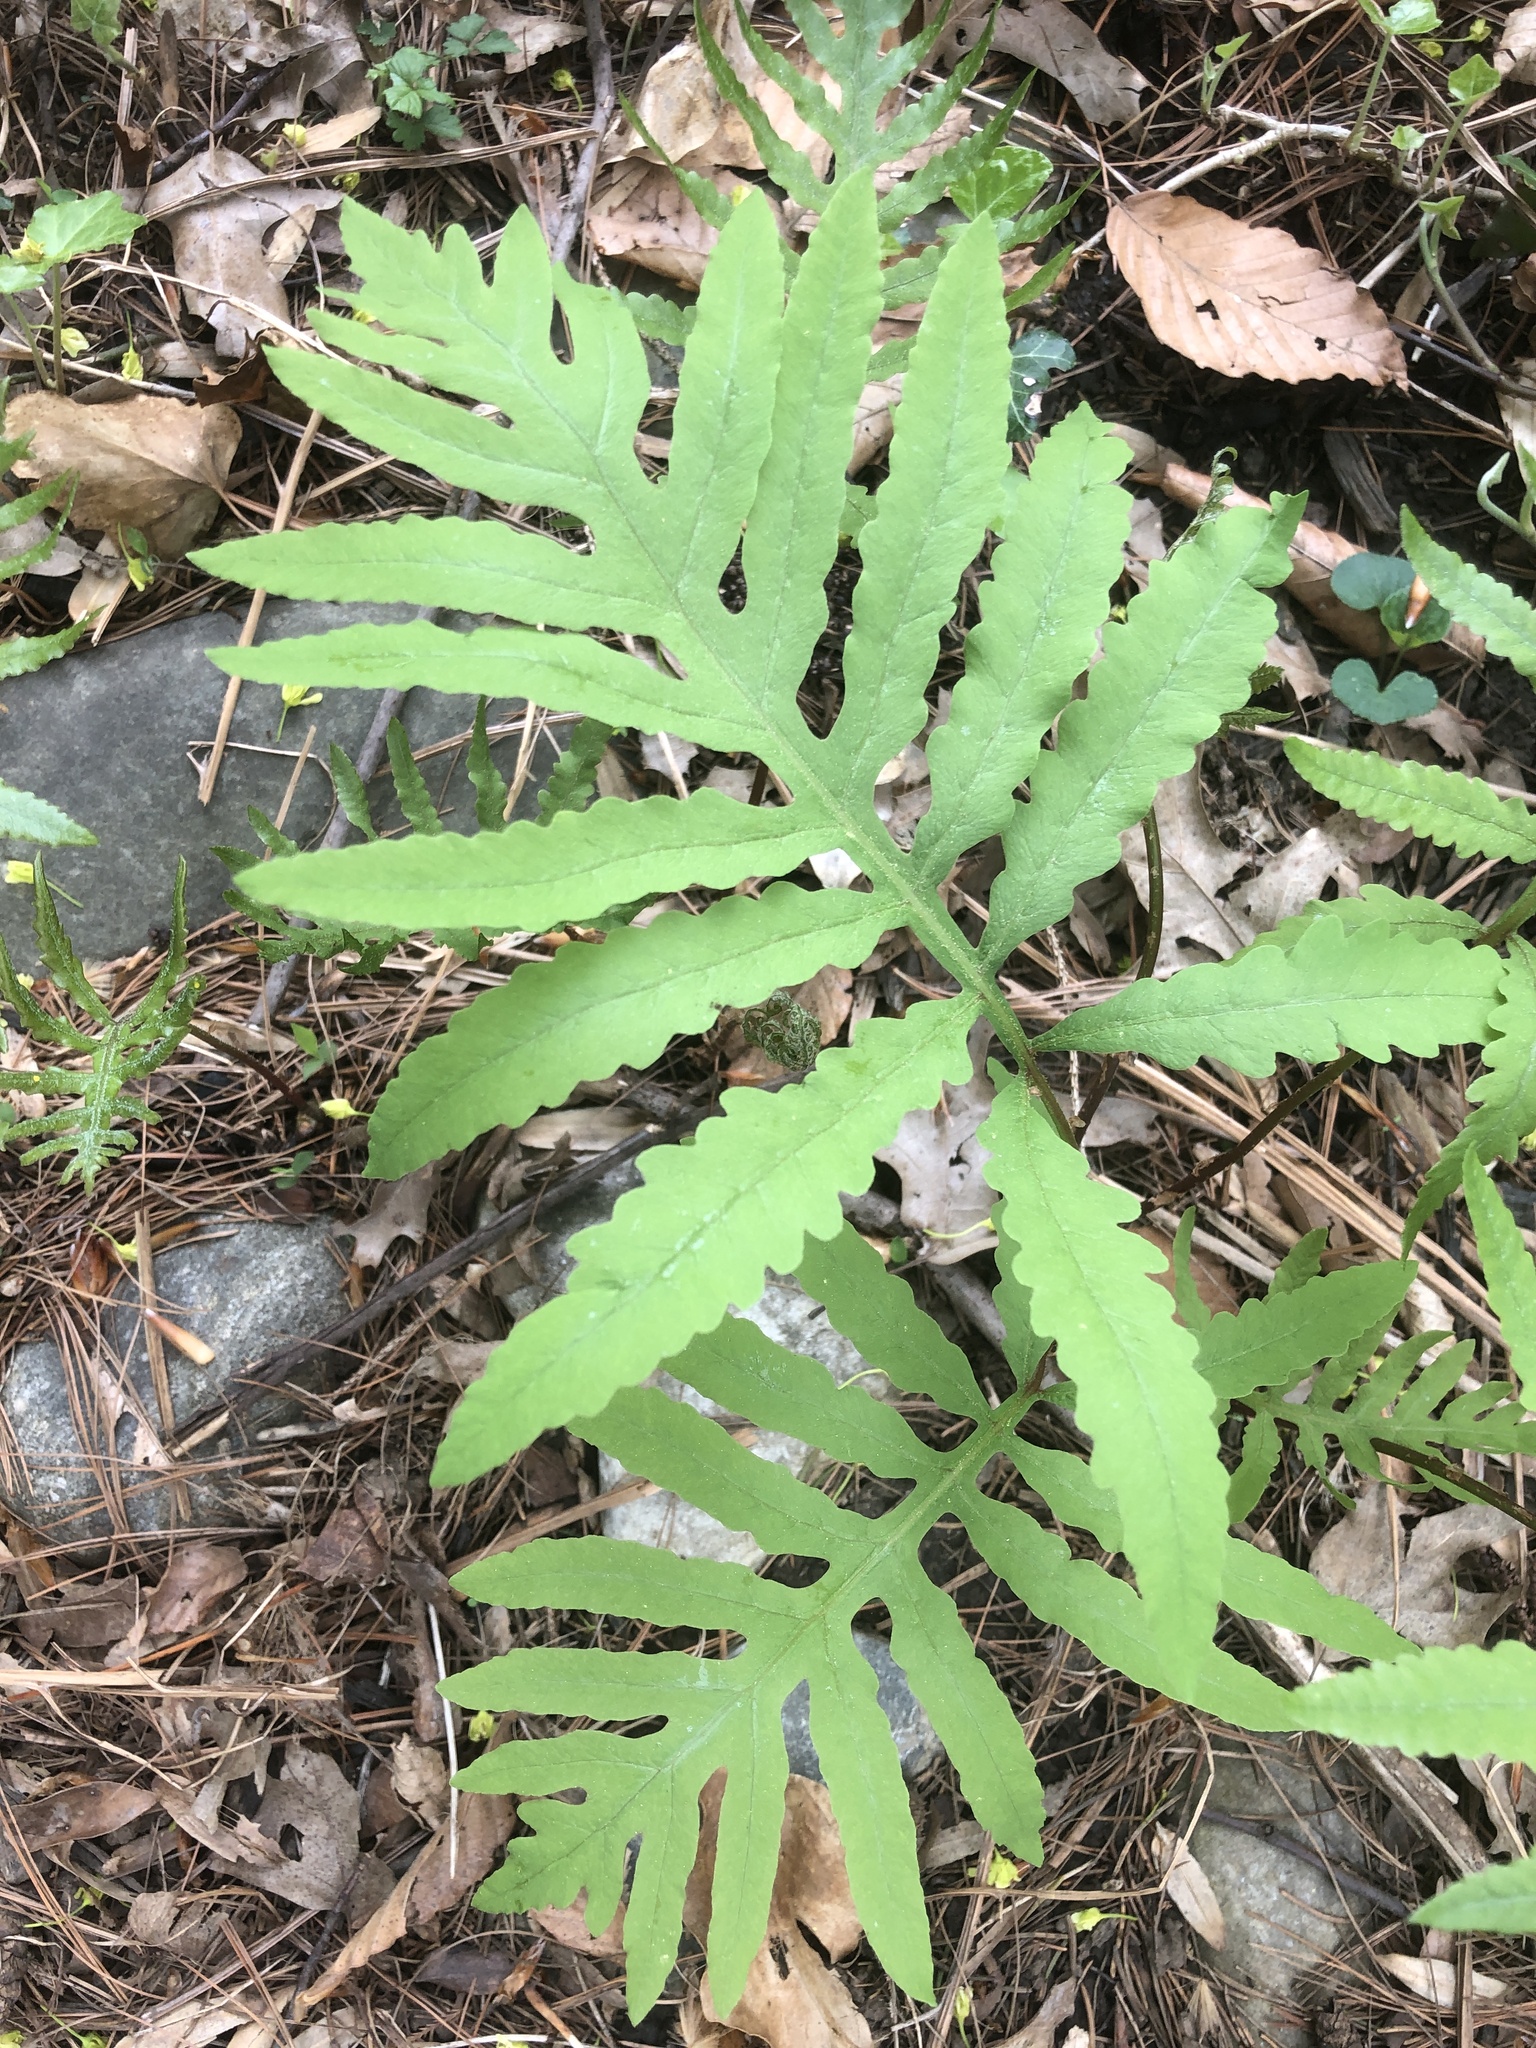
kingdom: Plantae
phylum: Tracheophyta
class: Polypodiopsida
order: Polypodiales
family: Onocleaceae
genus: Onoclea
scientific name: Onoclea sensibilis
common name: Sensitive fern
